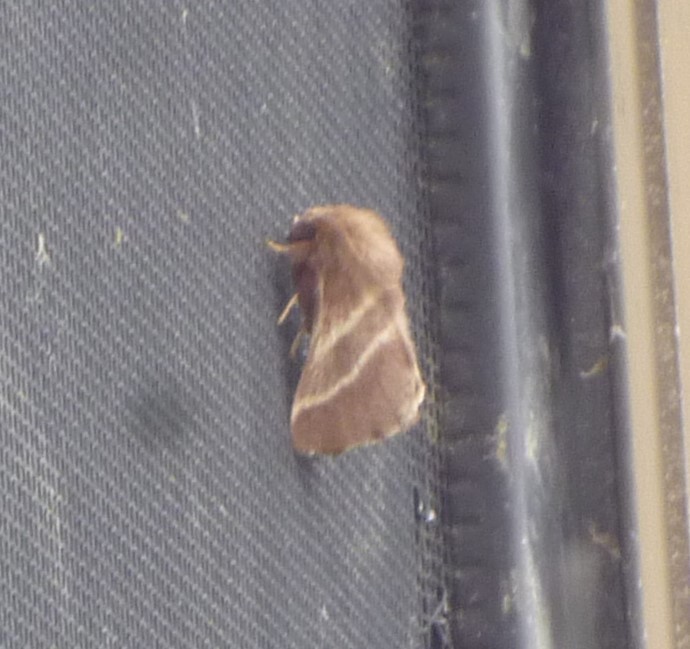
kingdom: Animalia
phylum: Arthropoda
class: Insecta
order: Lepidoptera
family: Lasiocampidae
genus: Malacosoma
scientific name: Malacosoma americana
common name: Eastern tent caterpillar moth
